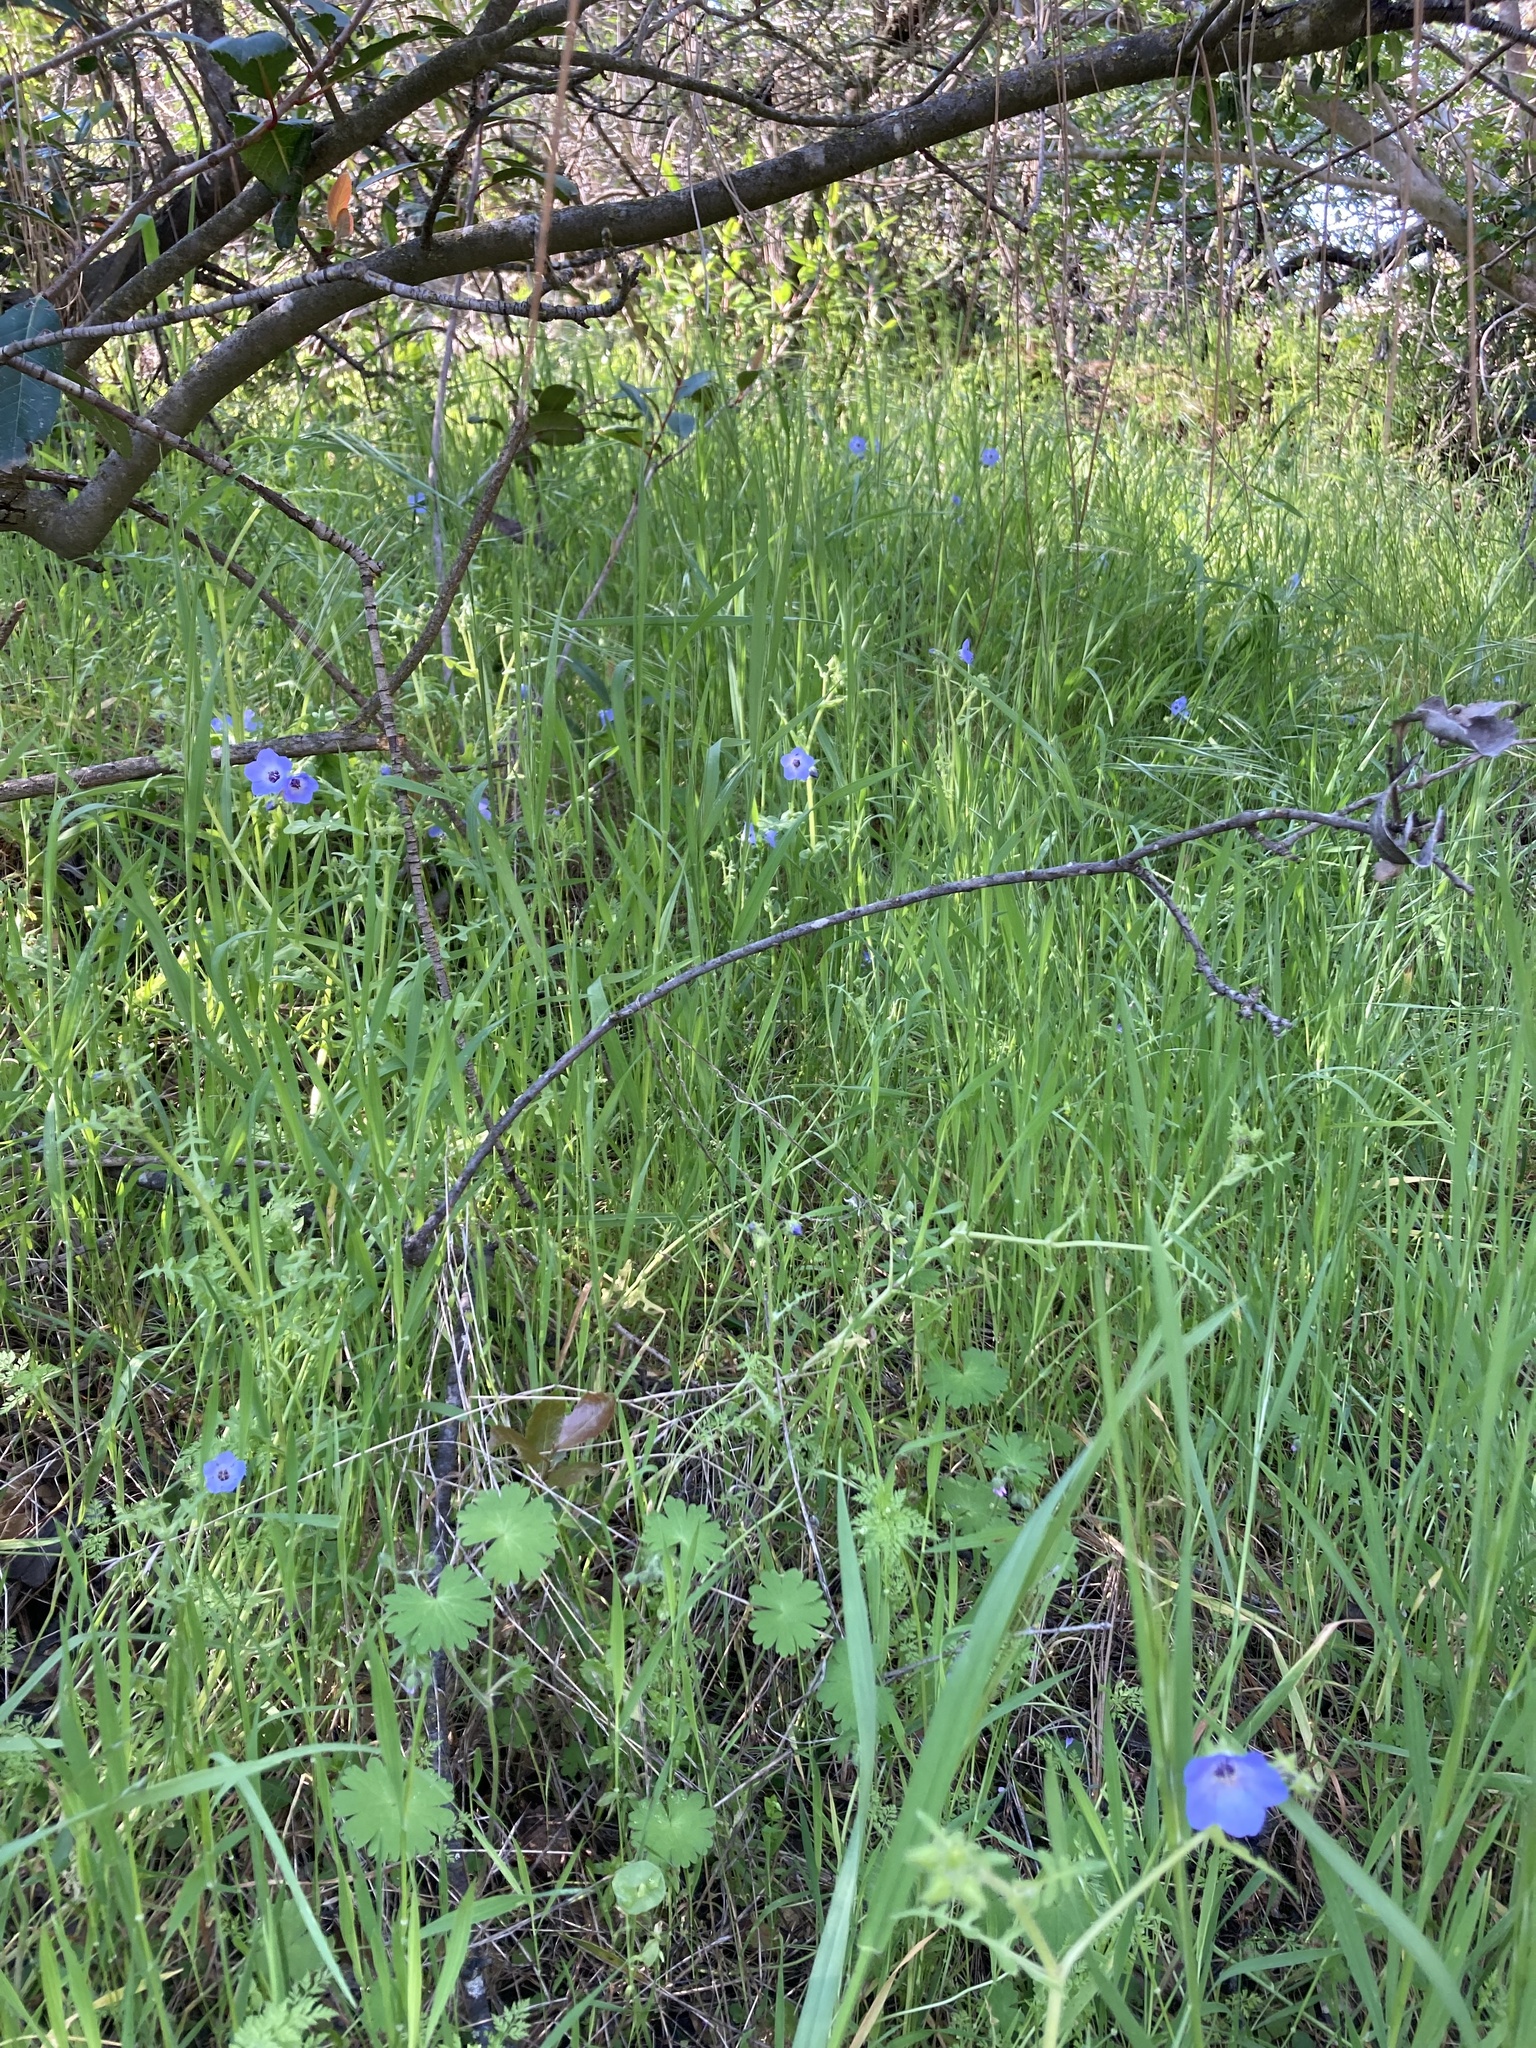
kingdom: Plantae
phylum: Tracheophyta
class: Magnoliopsida
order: Boraginales
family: Hydrophyllaceae
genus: Pholistoma
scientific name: Pholistoma auritum
